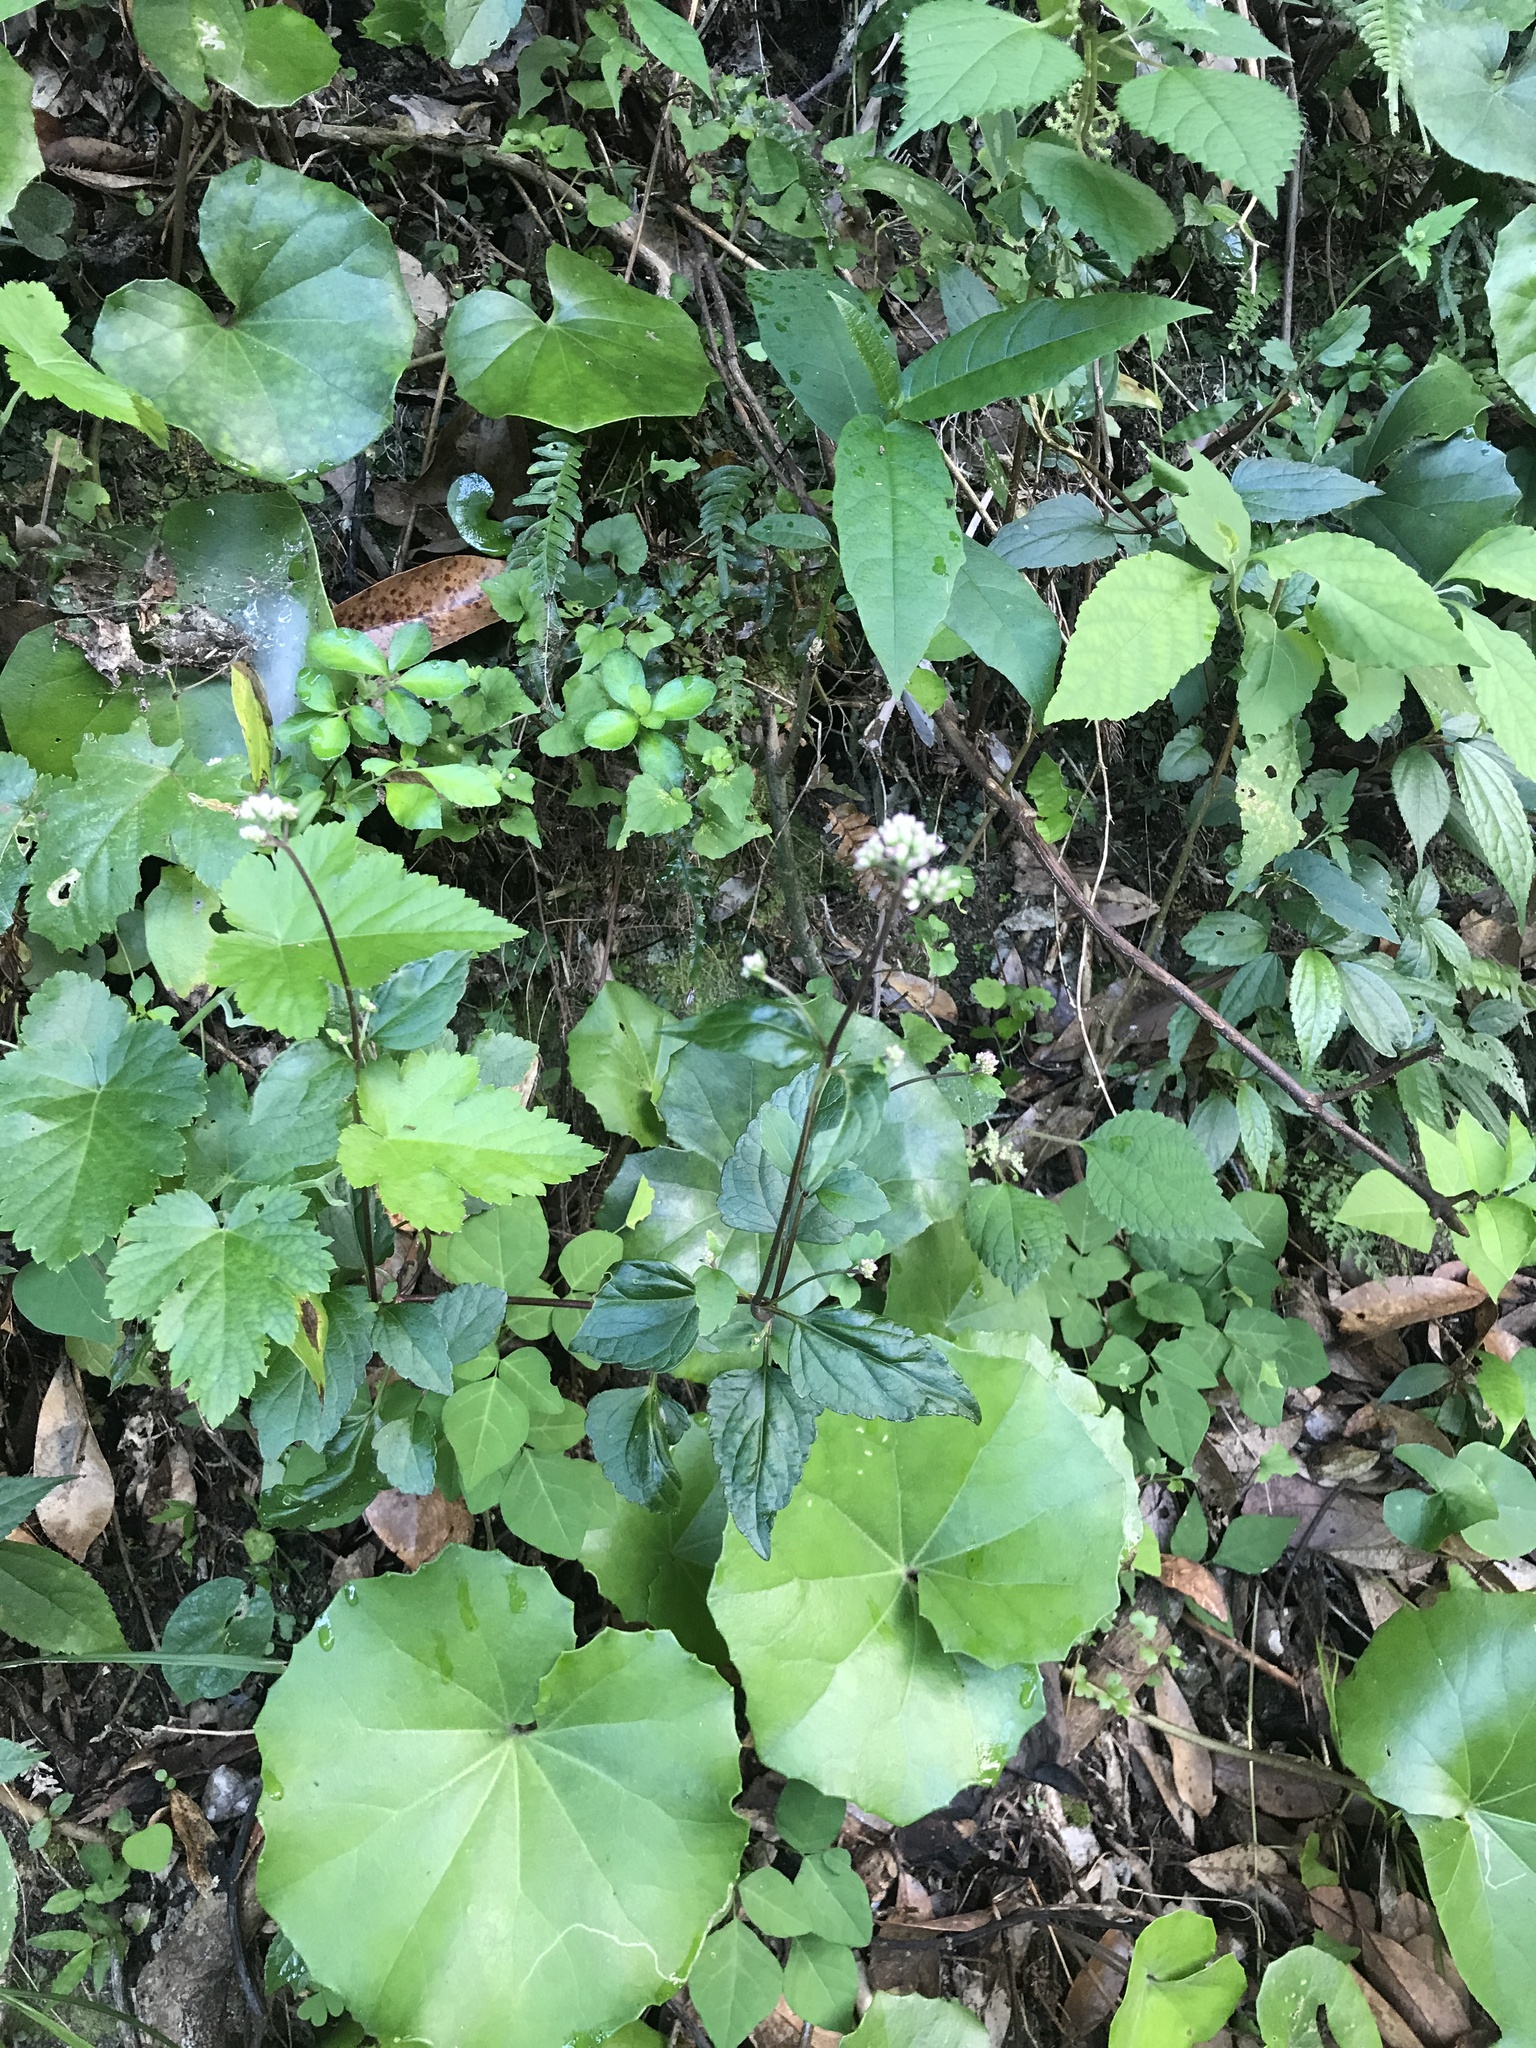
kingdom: Plantae
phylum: Tracheophyta
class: Magnoliopsida
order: Asterales
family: Asteraceae
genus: Eupatorium
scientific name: Eupatorium variabile
